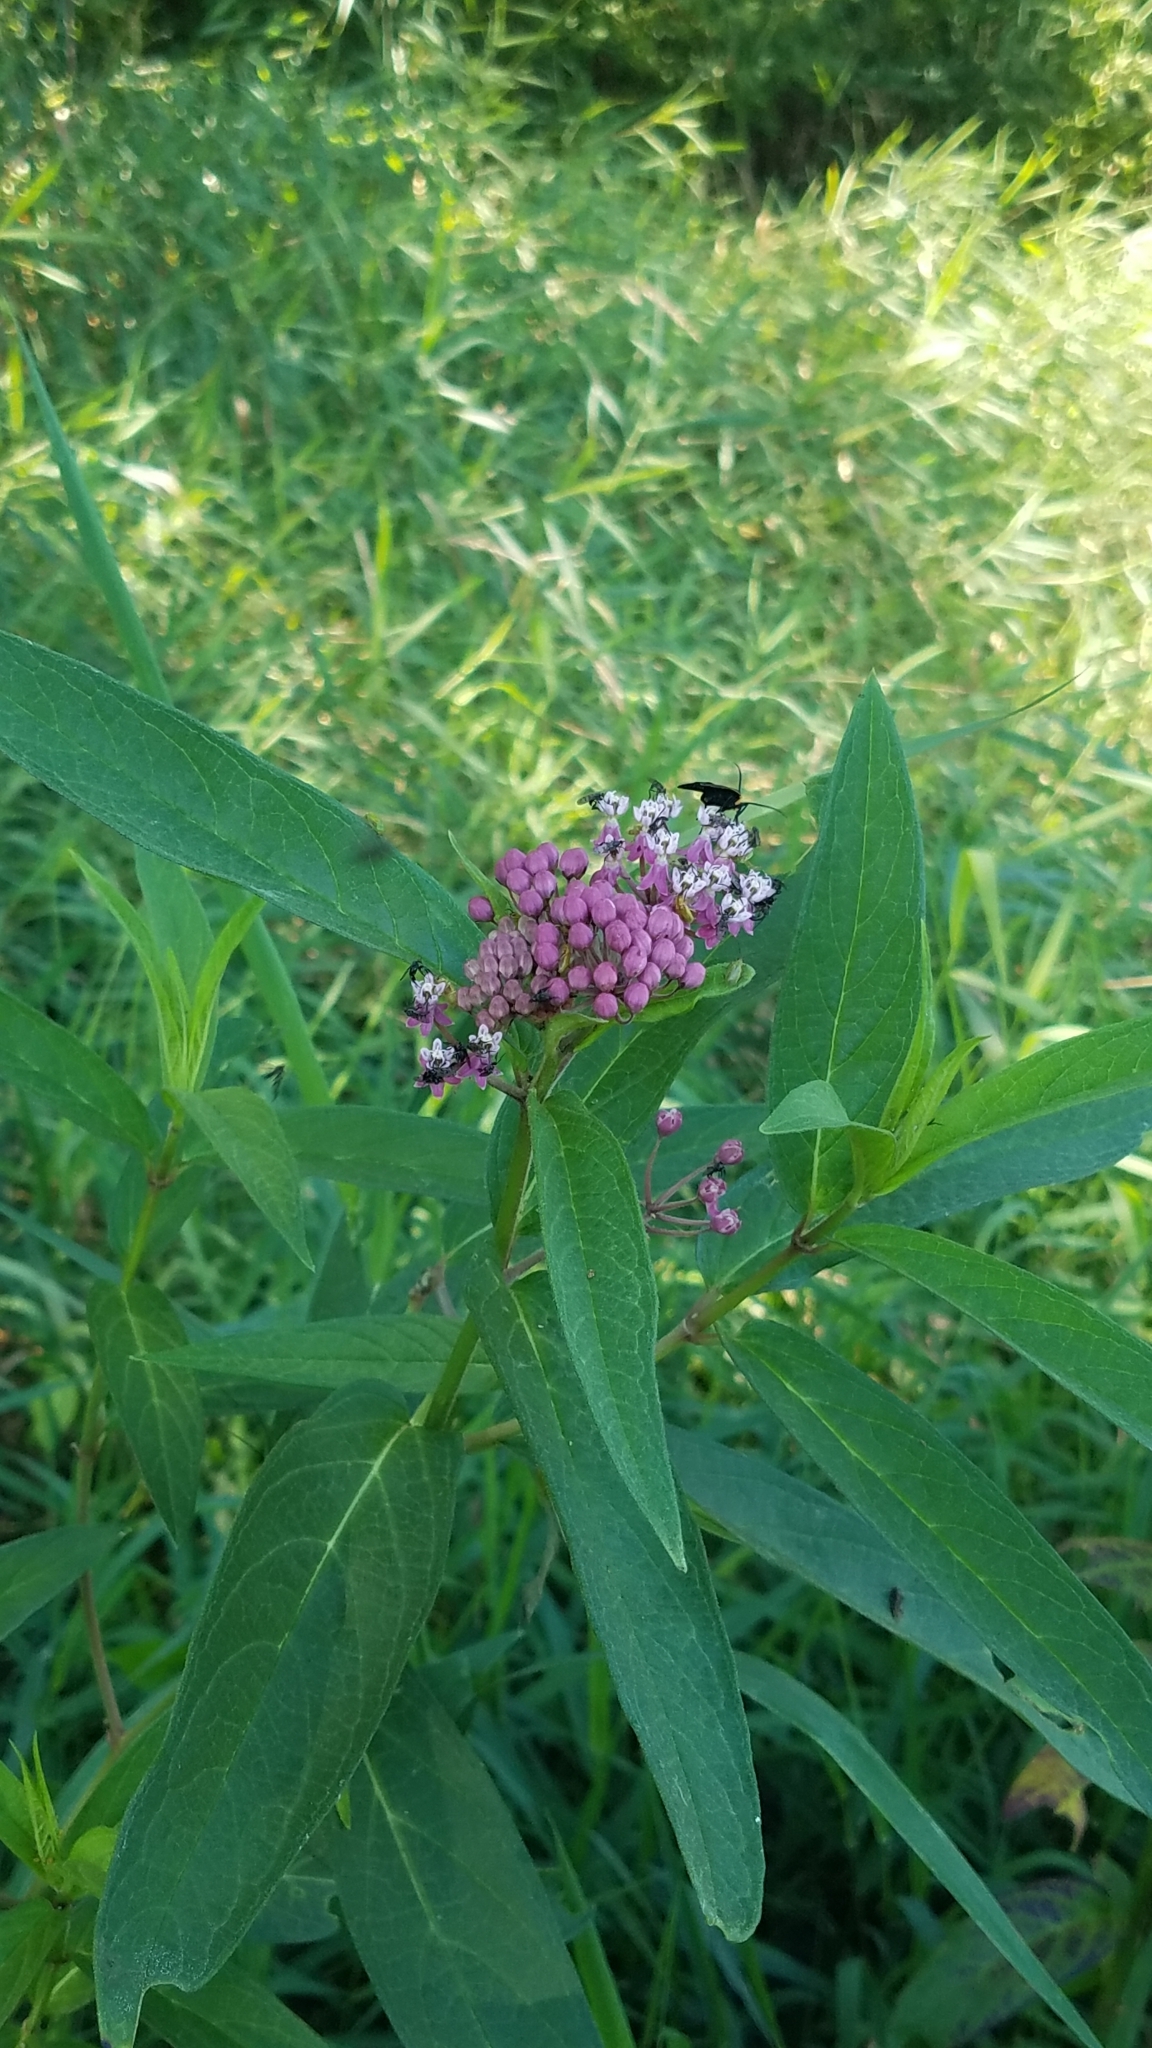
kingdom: Plantae
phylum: Tracheophyta
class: Magnoliopsida
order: Gentianales
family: Apocynaceae
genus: Asclepias
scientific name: Asclepias incarnata
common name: Swamp milkweed
